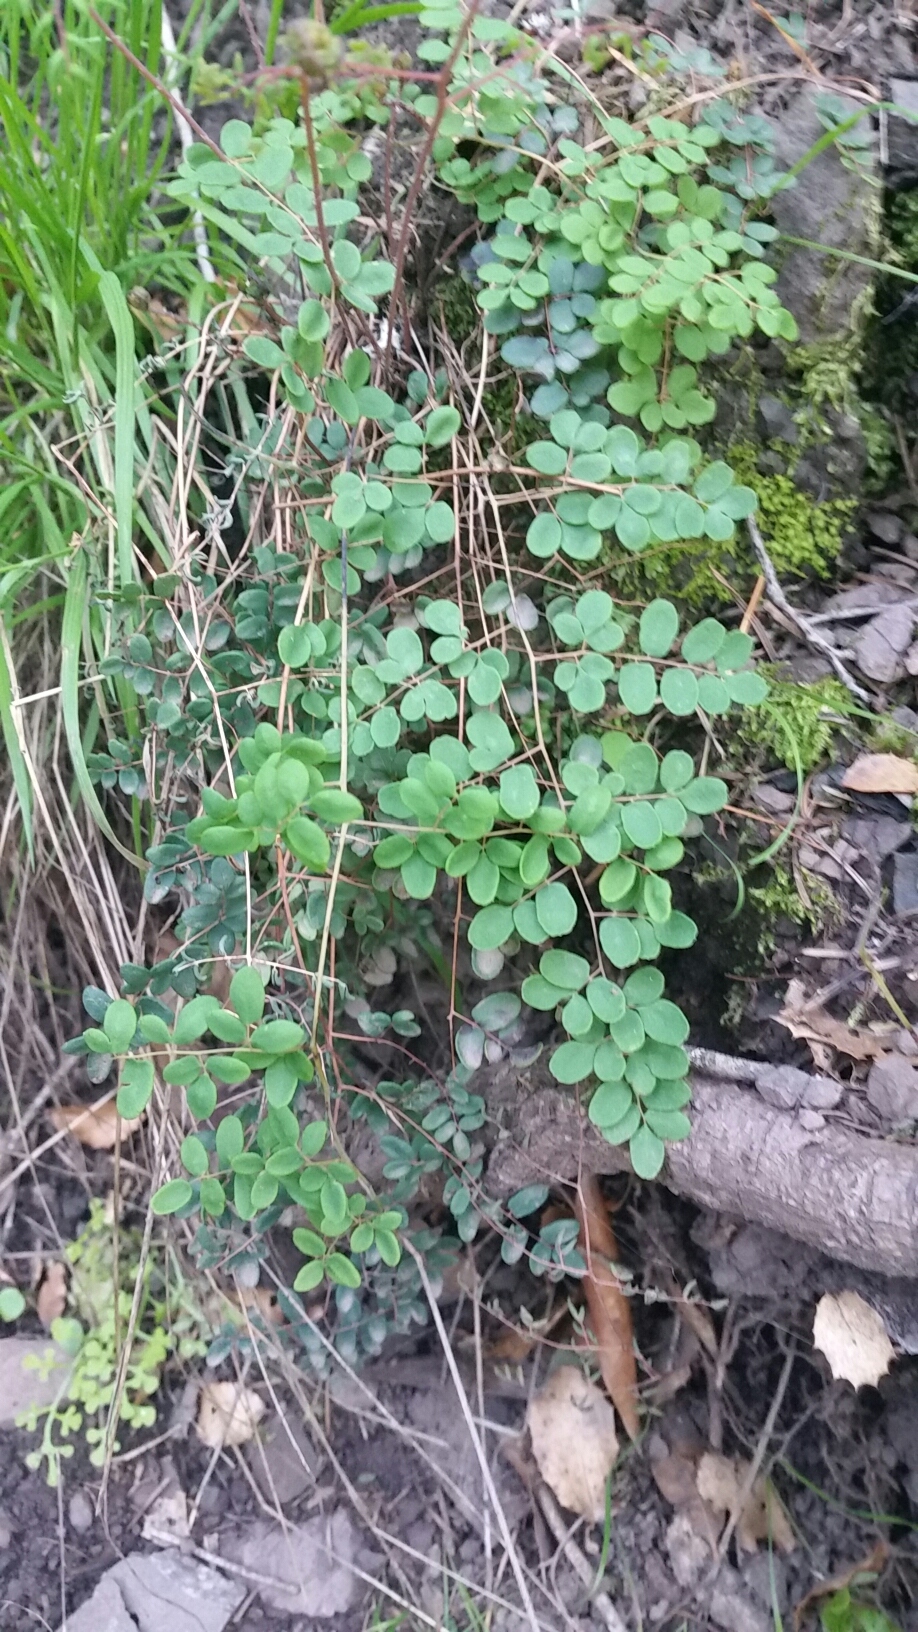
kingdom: Plantae
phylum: Tracheophyta
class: Polypodiopsida
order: Polypodiales
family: Pteridaceae
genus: Pellaea
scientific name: Pellaea andromedifolia
